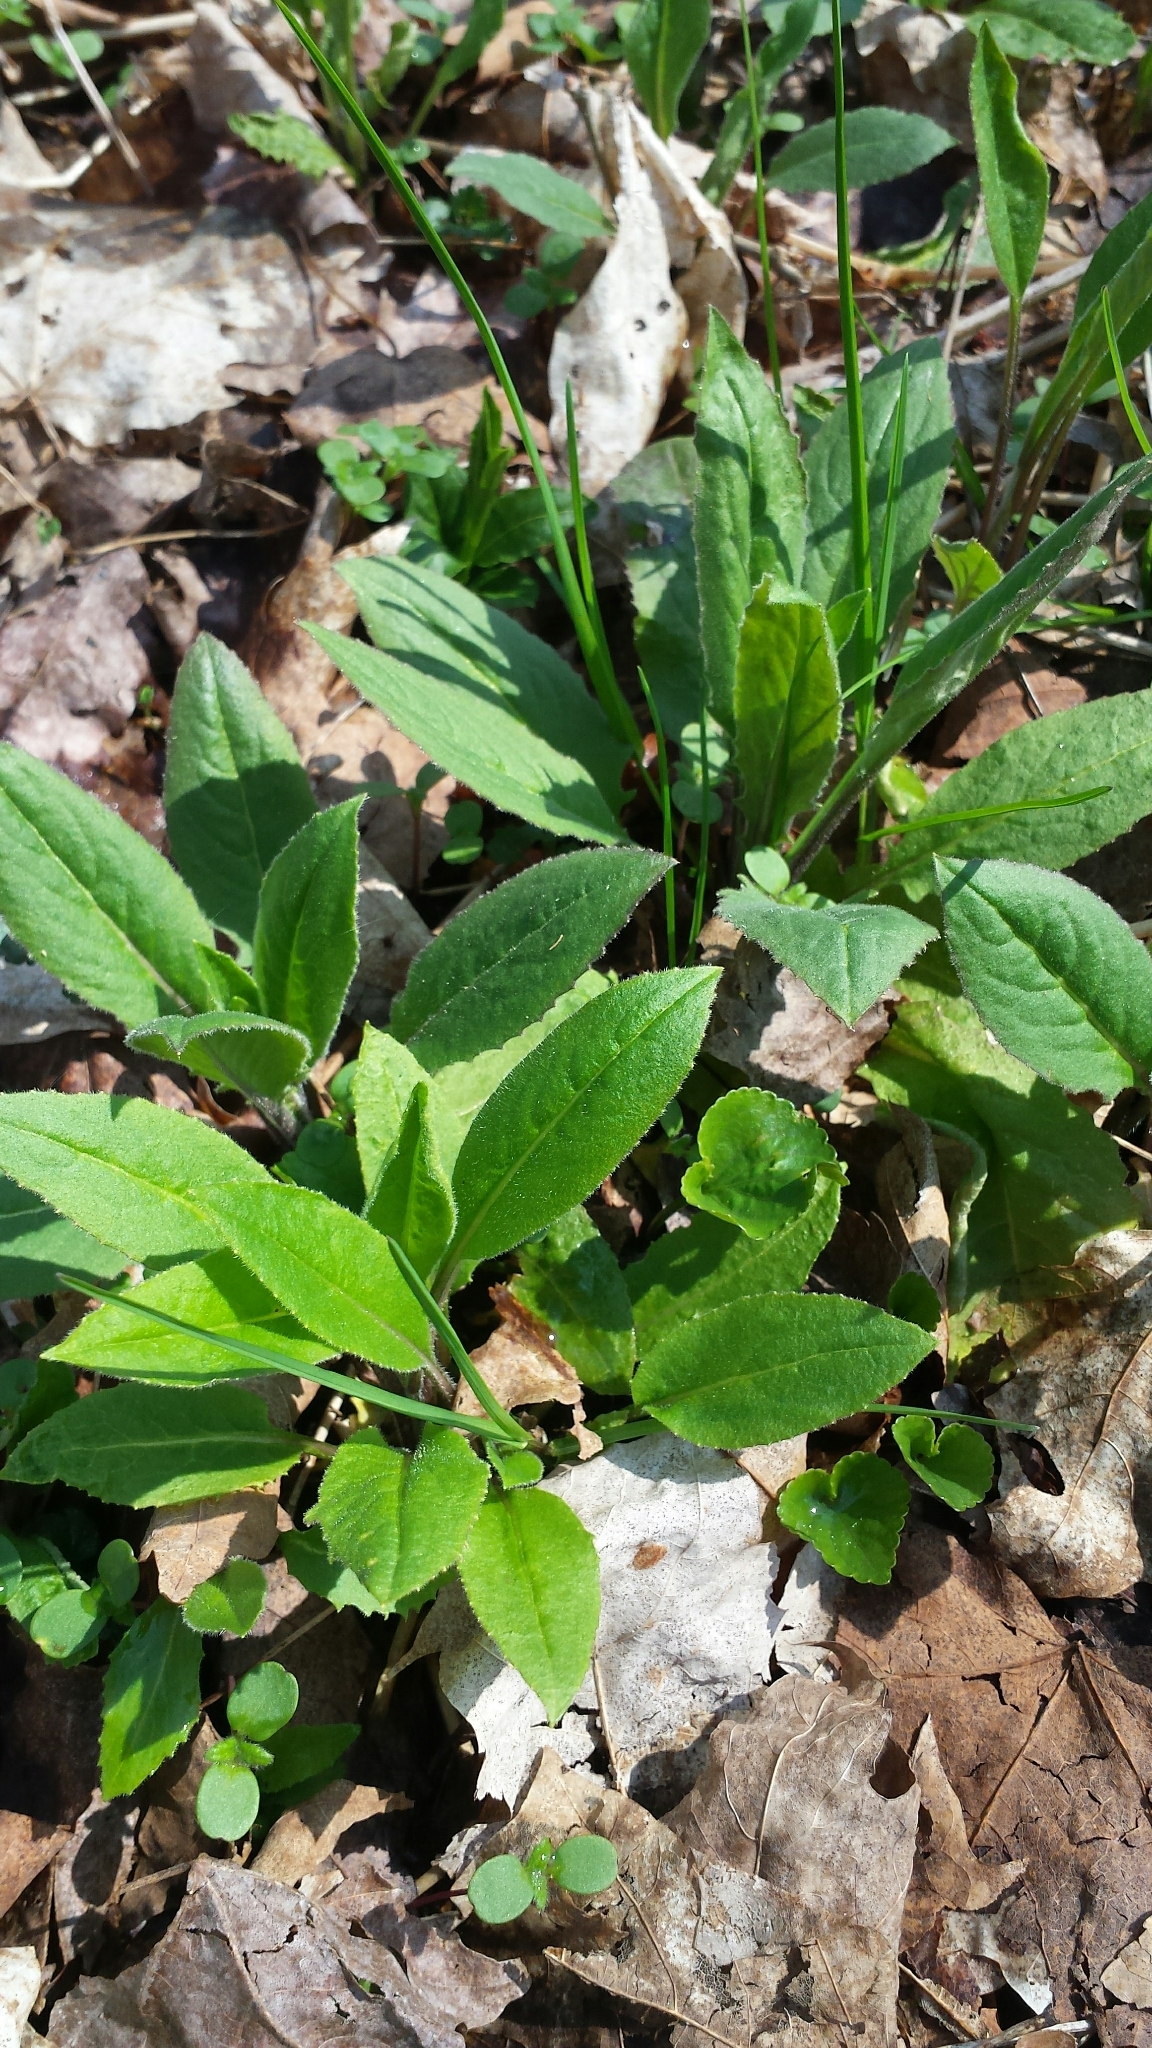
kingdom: Plantae
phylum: Tracheophyta
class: Magnoliopsida
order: Brassicales
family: Brassicaceae
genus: Hesperis
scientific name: Hesperis matronalis
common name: Dame's-violet
